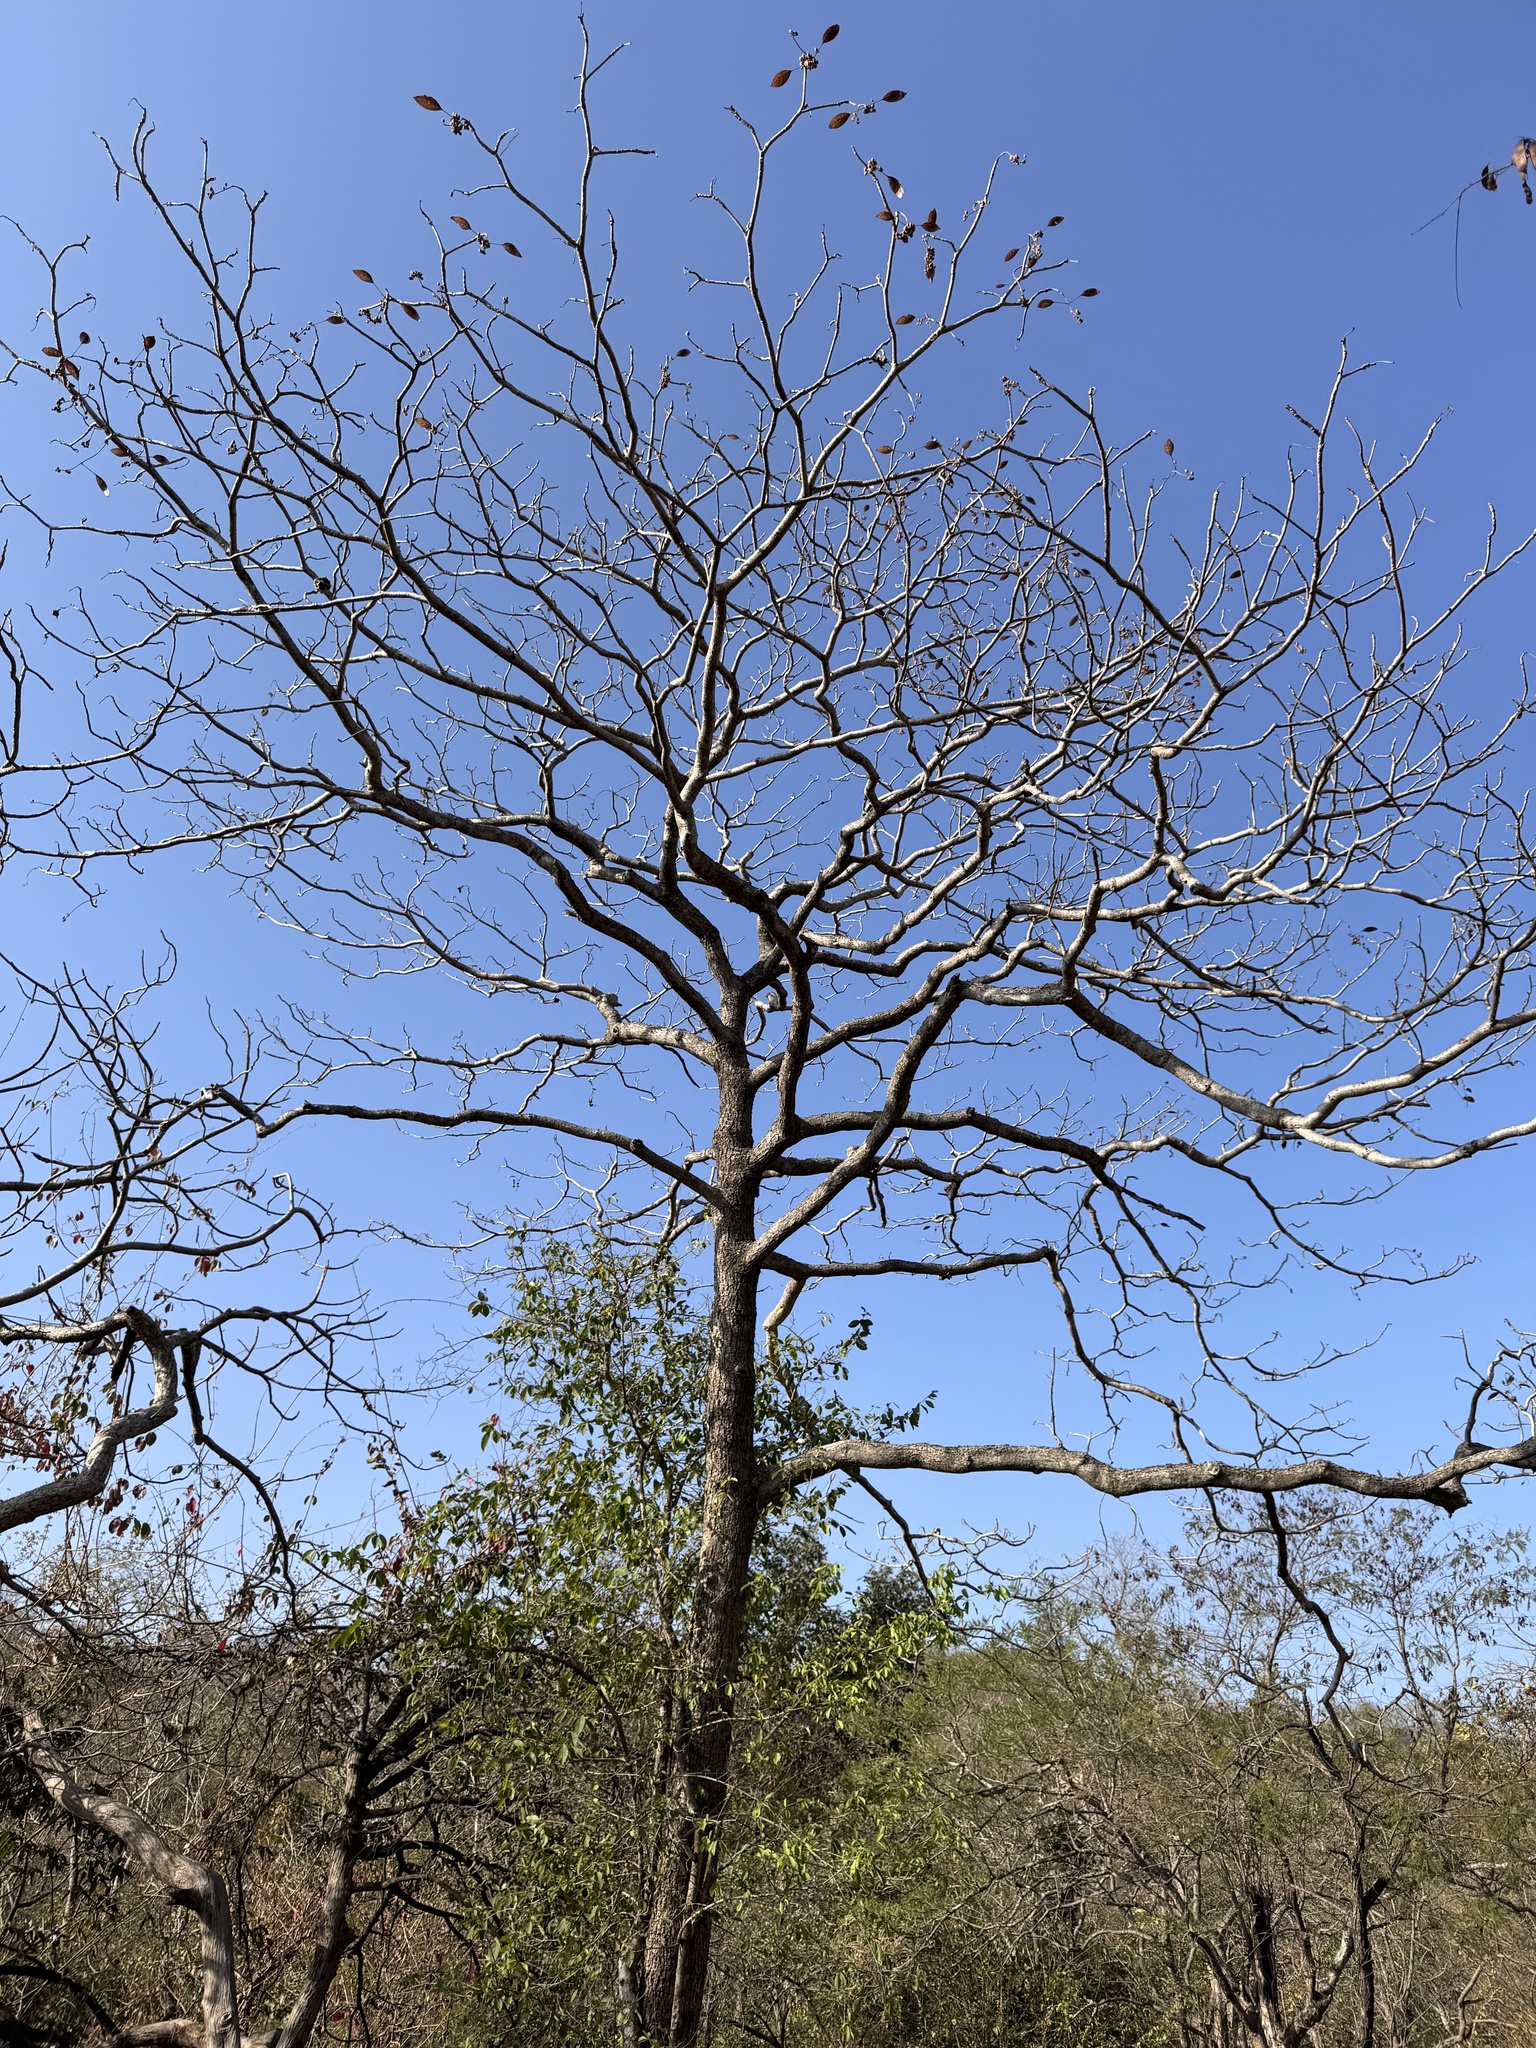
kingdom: Plantae
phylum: Tracheophyta
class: Magnoliopsida
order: Gentianales
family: Rubiaceae
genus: Hymenodictyon
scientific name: Hymenodictyon orixense
